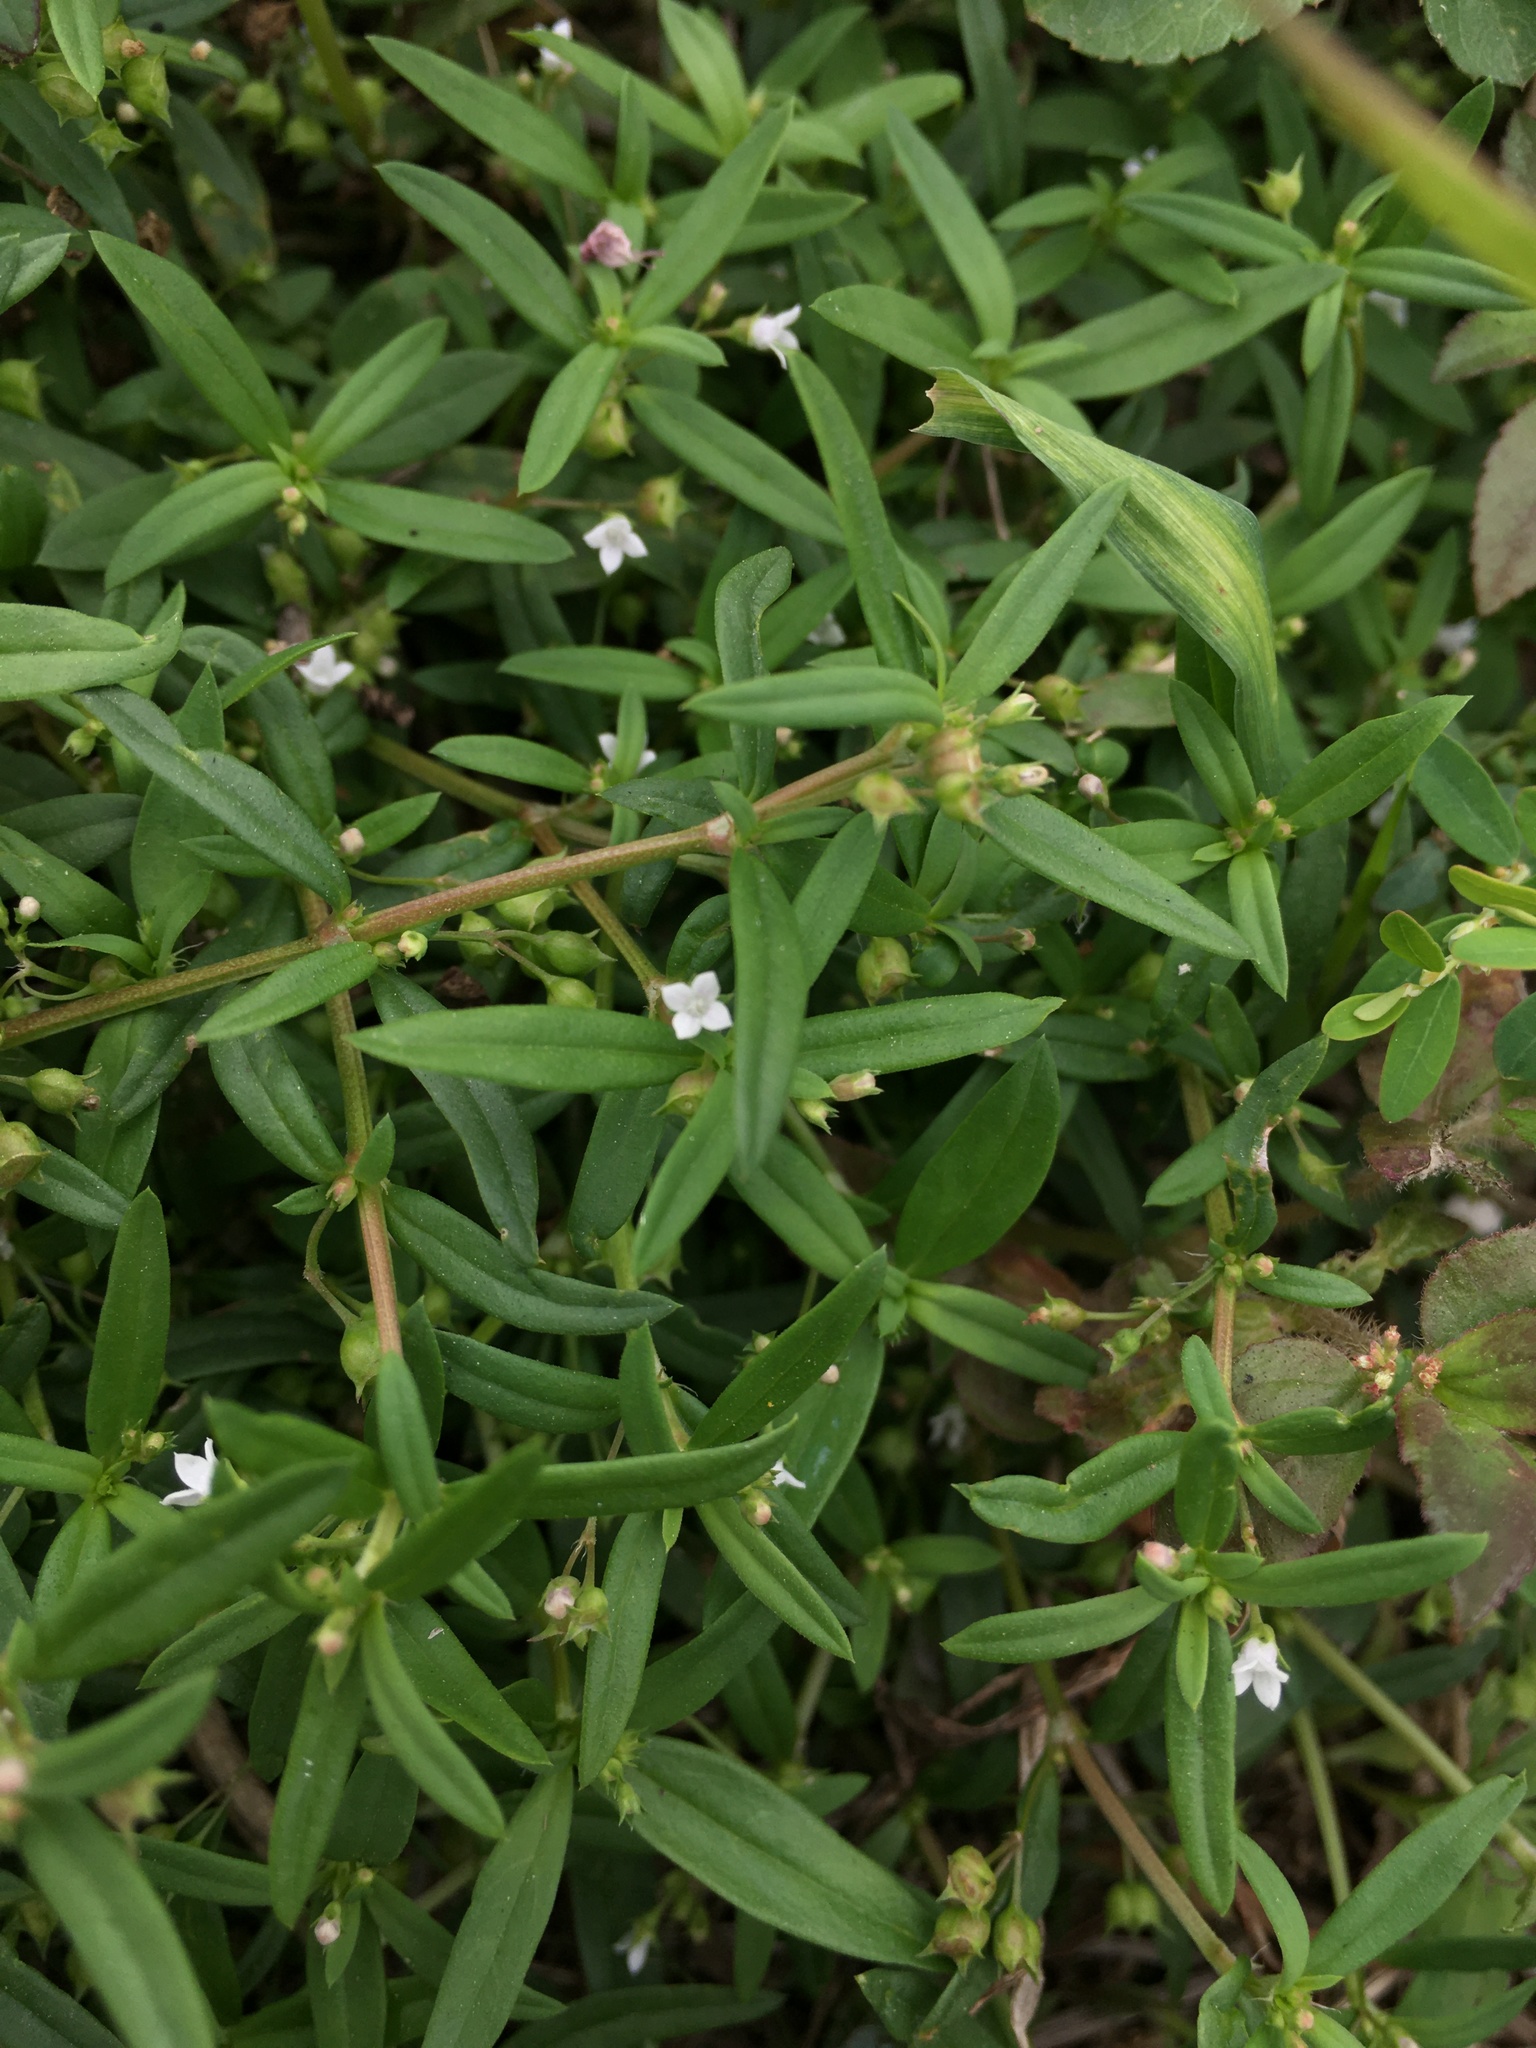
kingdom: Plantae
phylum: Tracheophyta
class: Magnoliopsida
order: Gentianales
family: Rubiaceae
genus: Oldenlandia
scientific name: Oldenlandia corymbosa
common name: Flat-top mille graines
